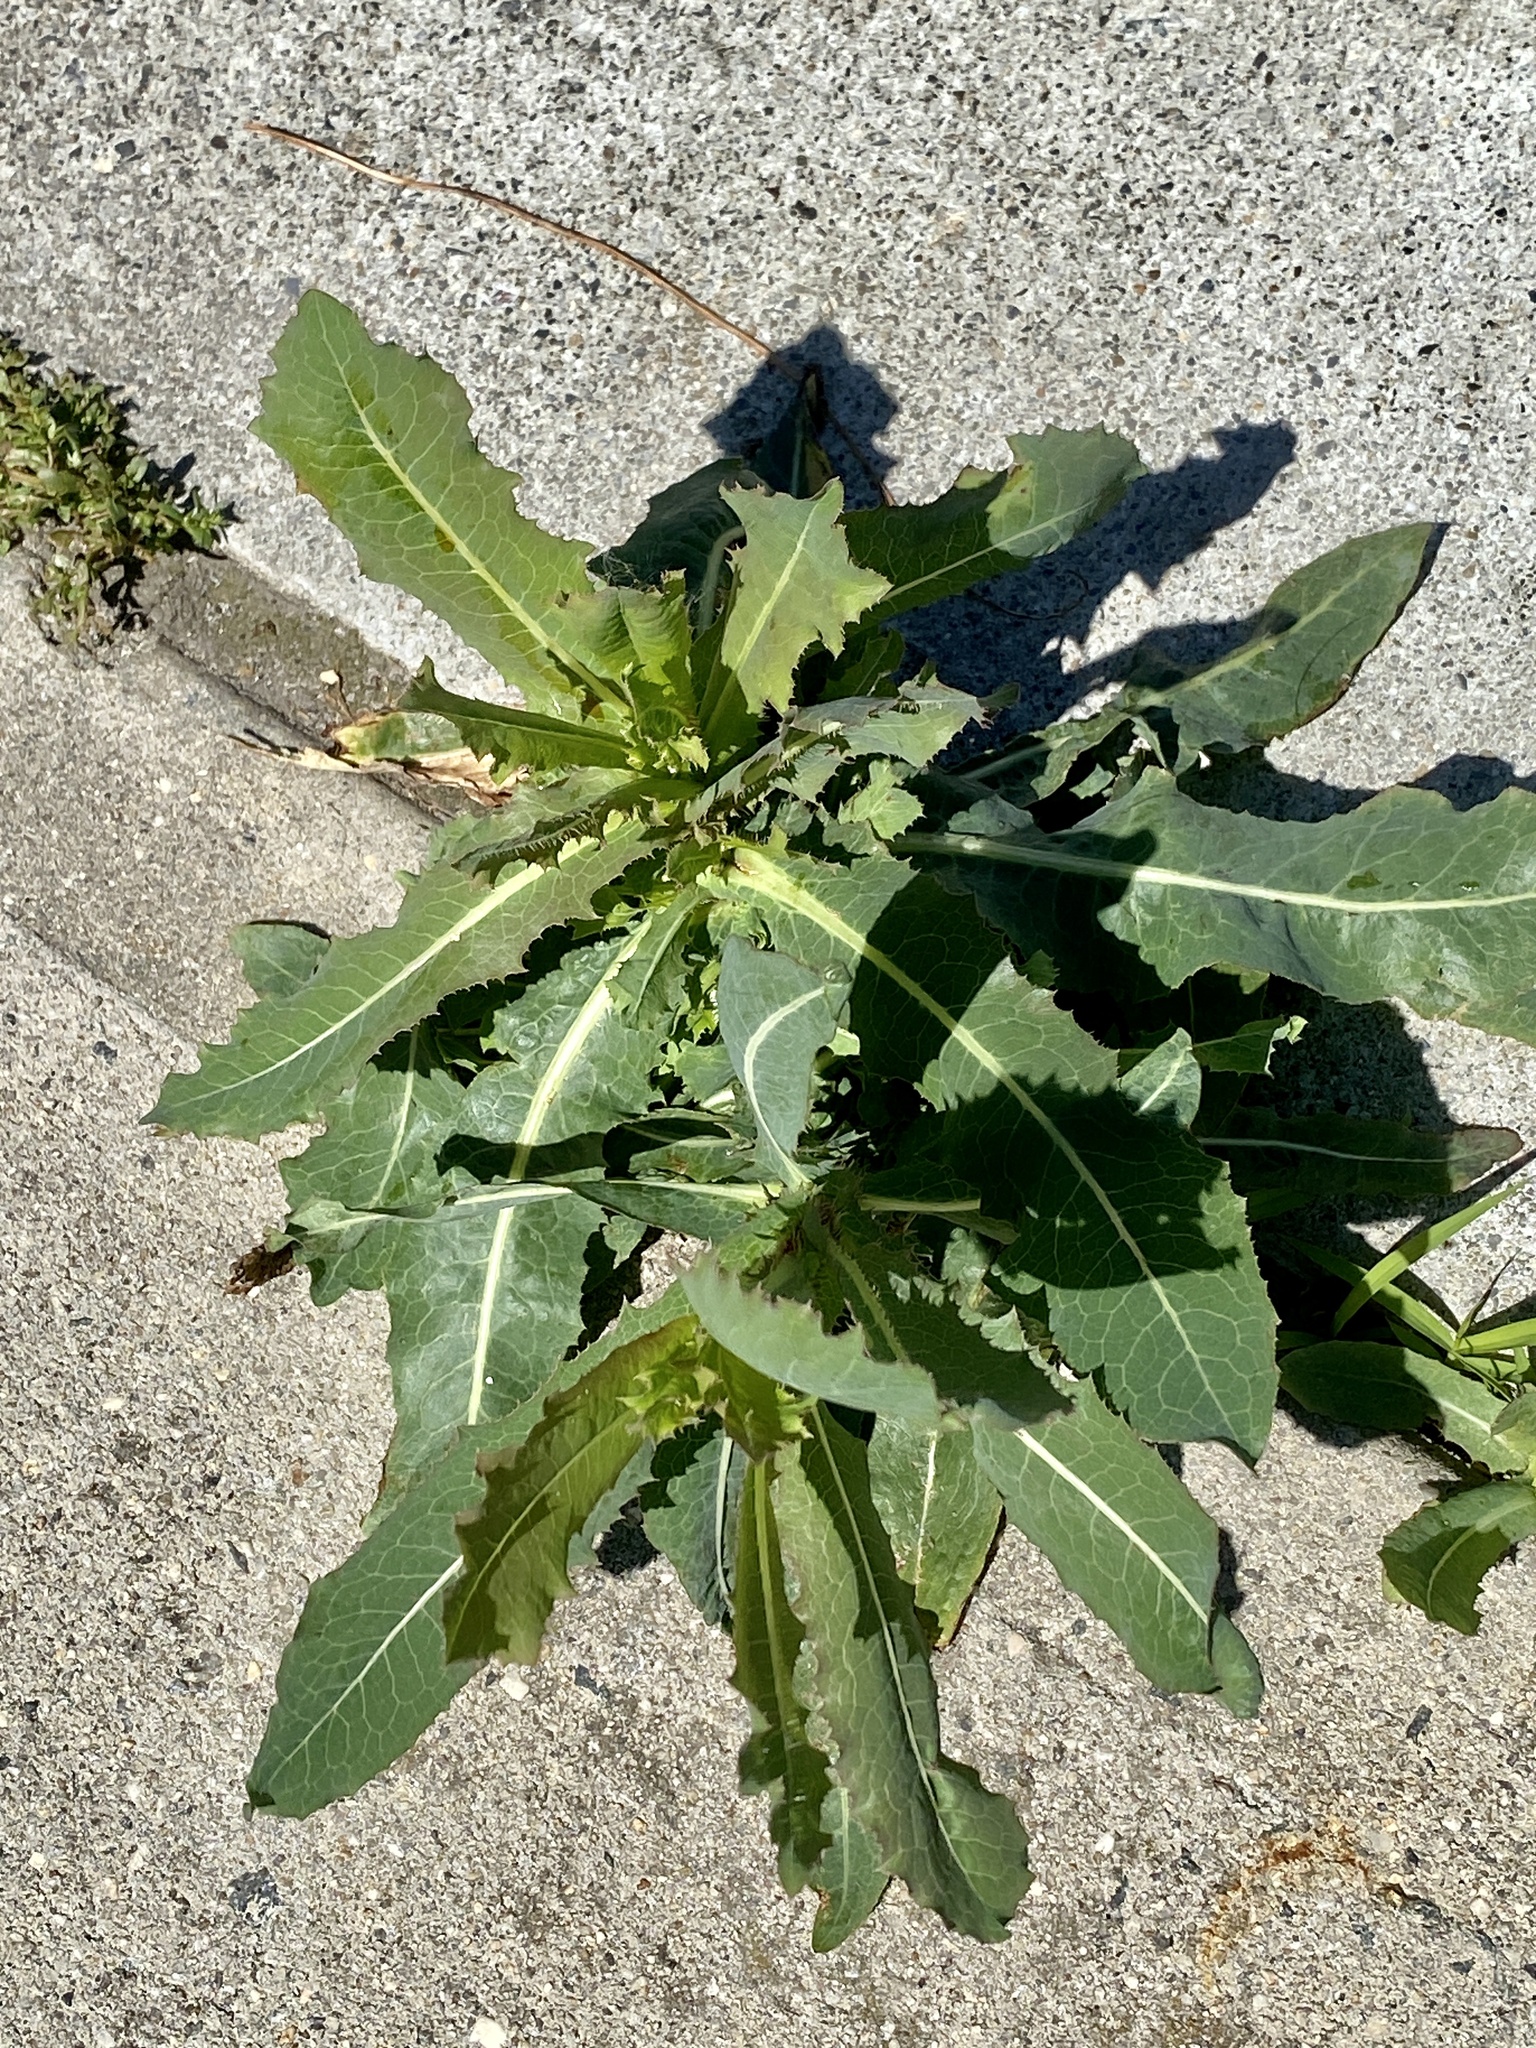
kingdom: Plantae
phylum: Tracheophyta
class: Magnoliopsida
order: Asterales
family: Asteraceae
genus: Lactuca
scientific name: Lactuca serriola
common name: Prickly lettuce
